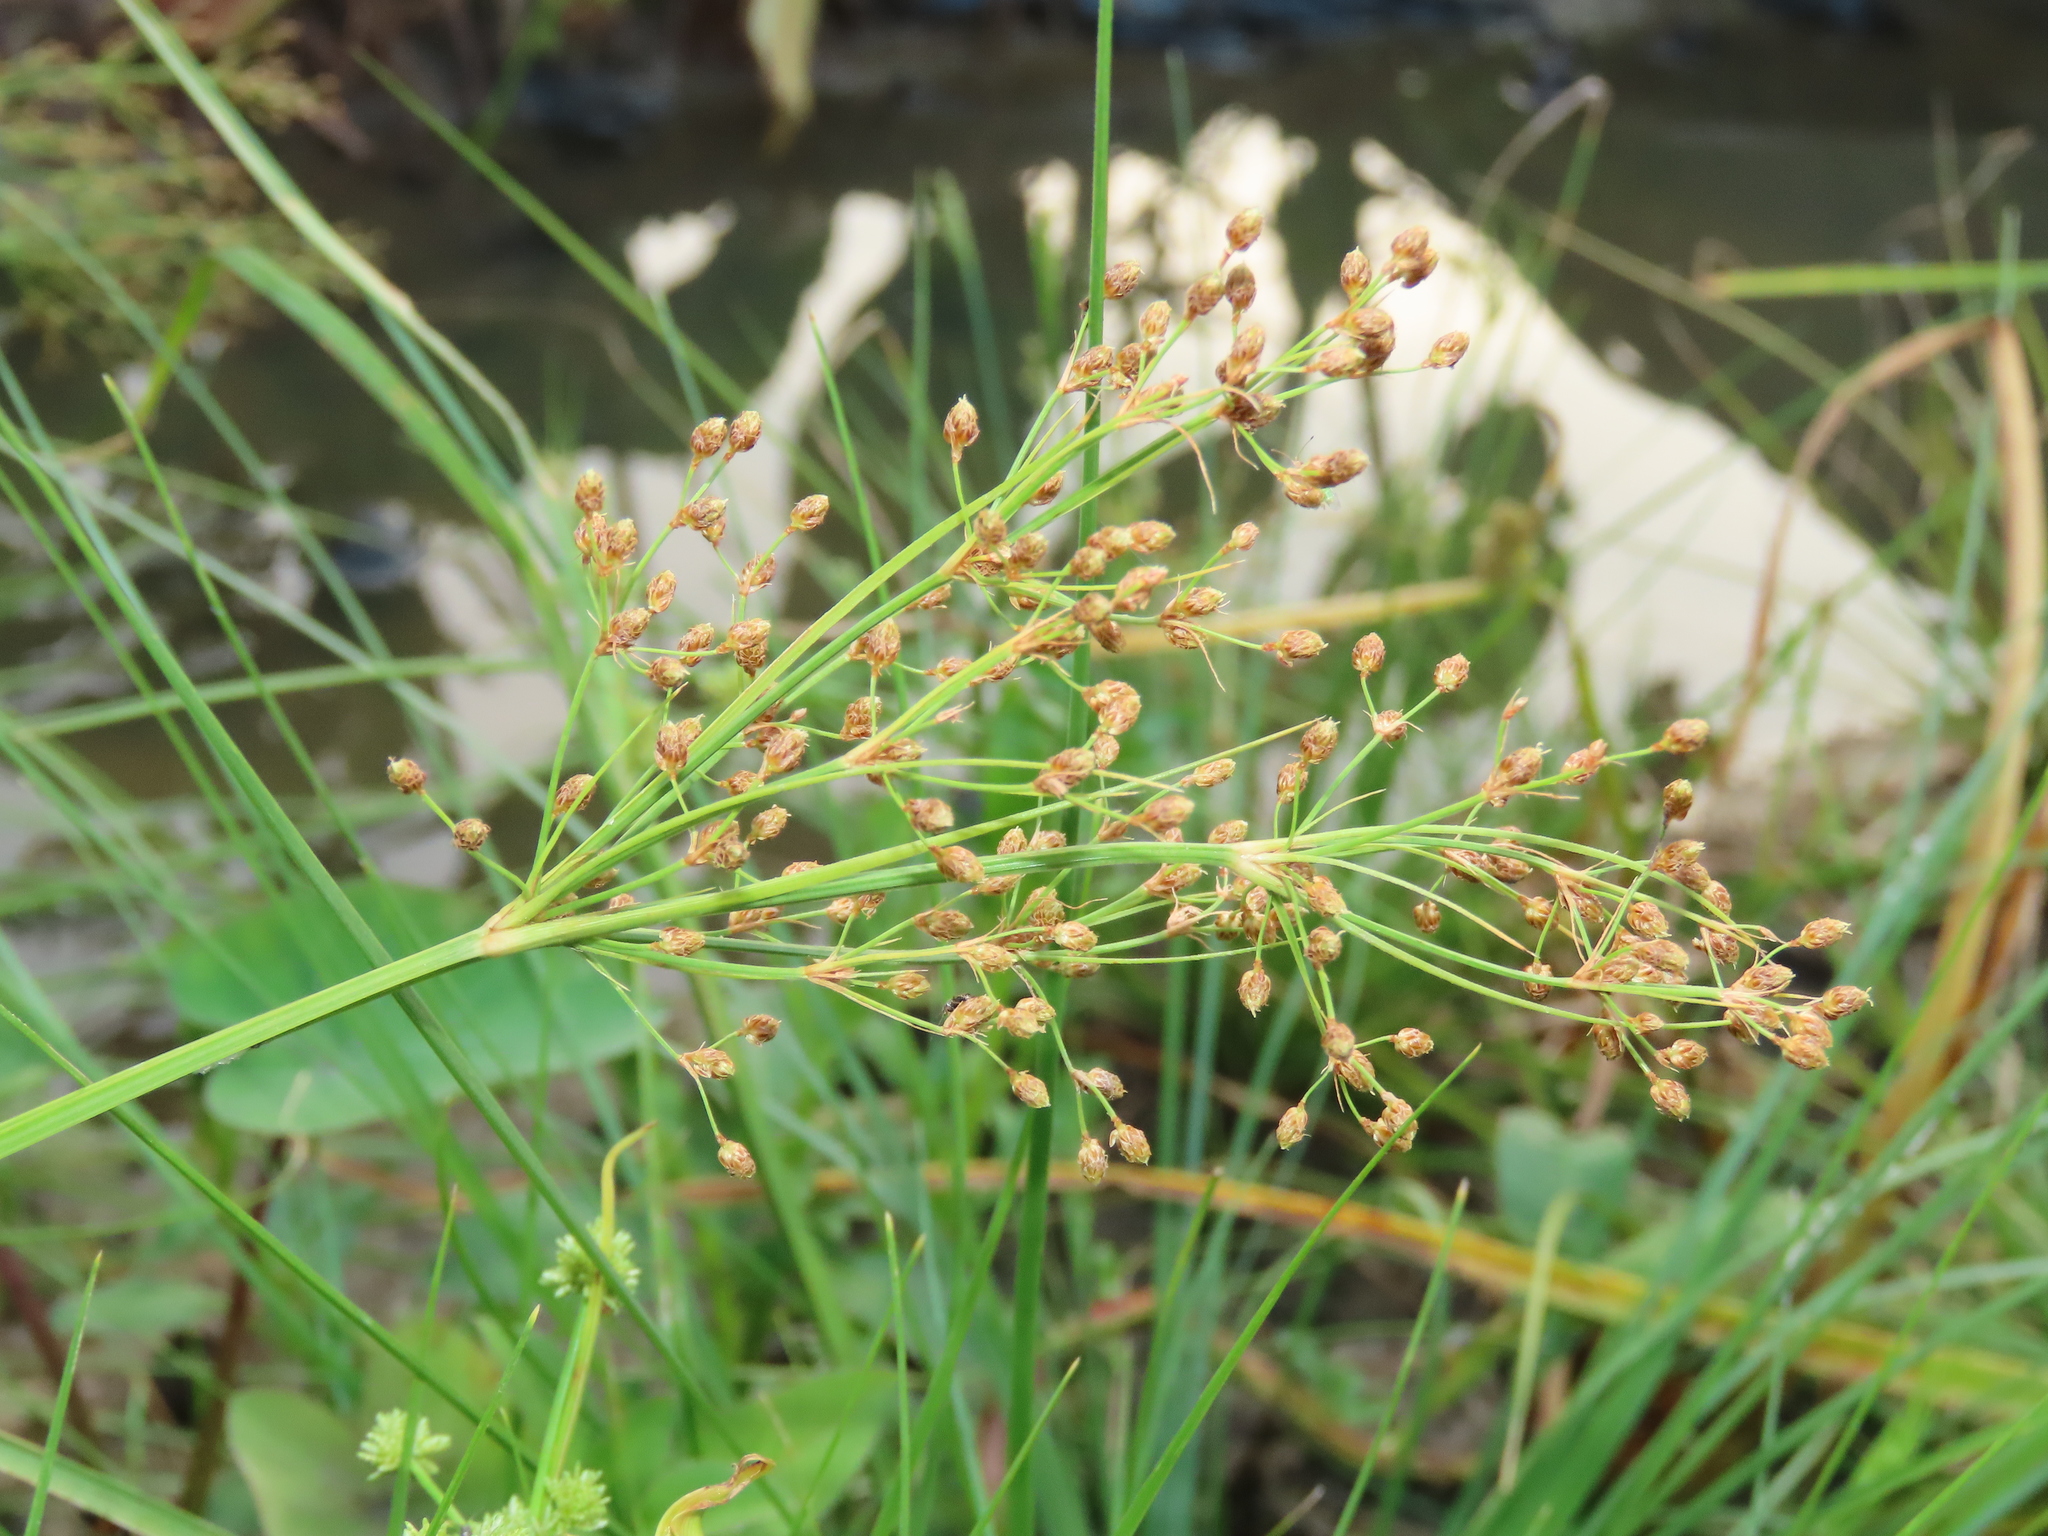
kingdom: Plantae
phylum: Tracheophyta
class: Liliopsida
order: Poales
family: Cyperaceae
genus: Fimbristylis
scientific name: Fimbristylis littoralis
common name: Fimbry
